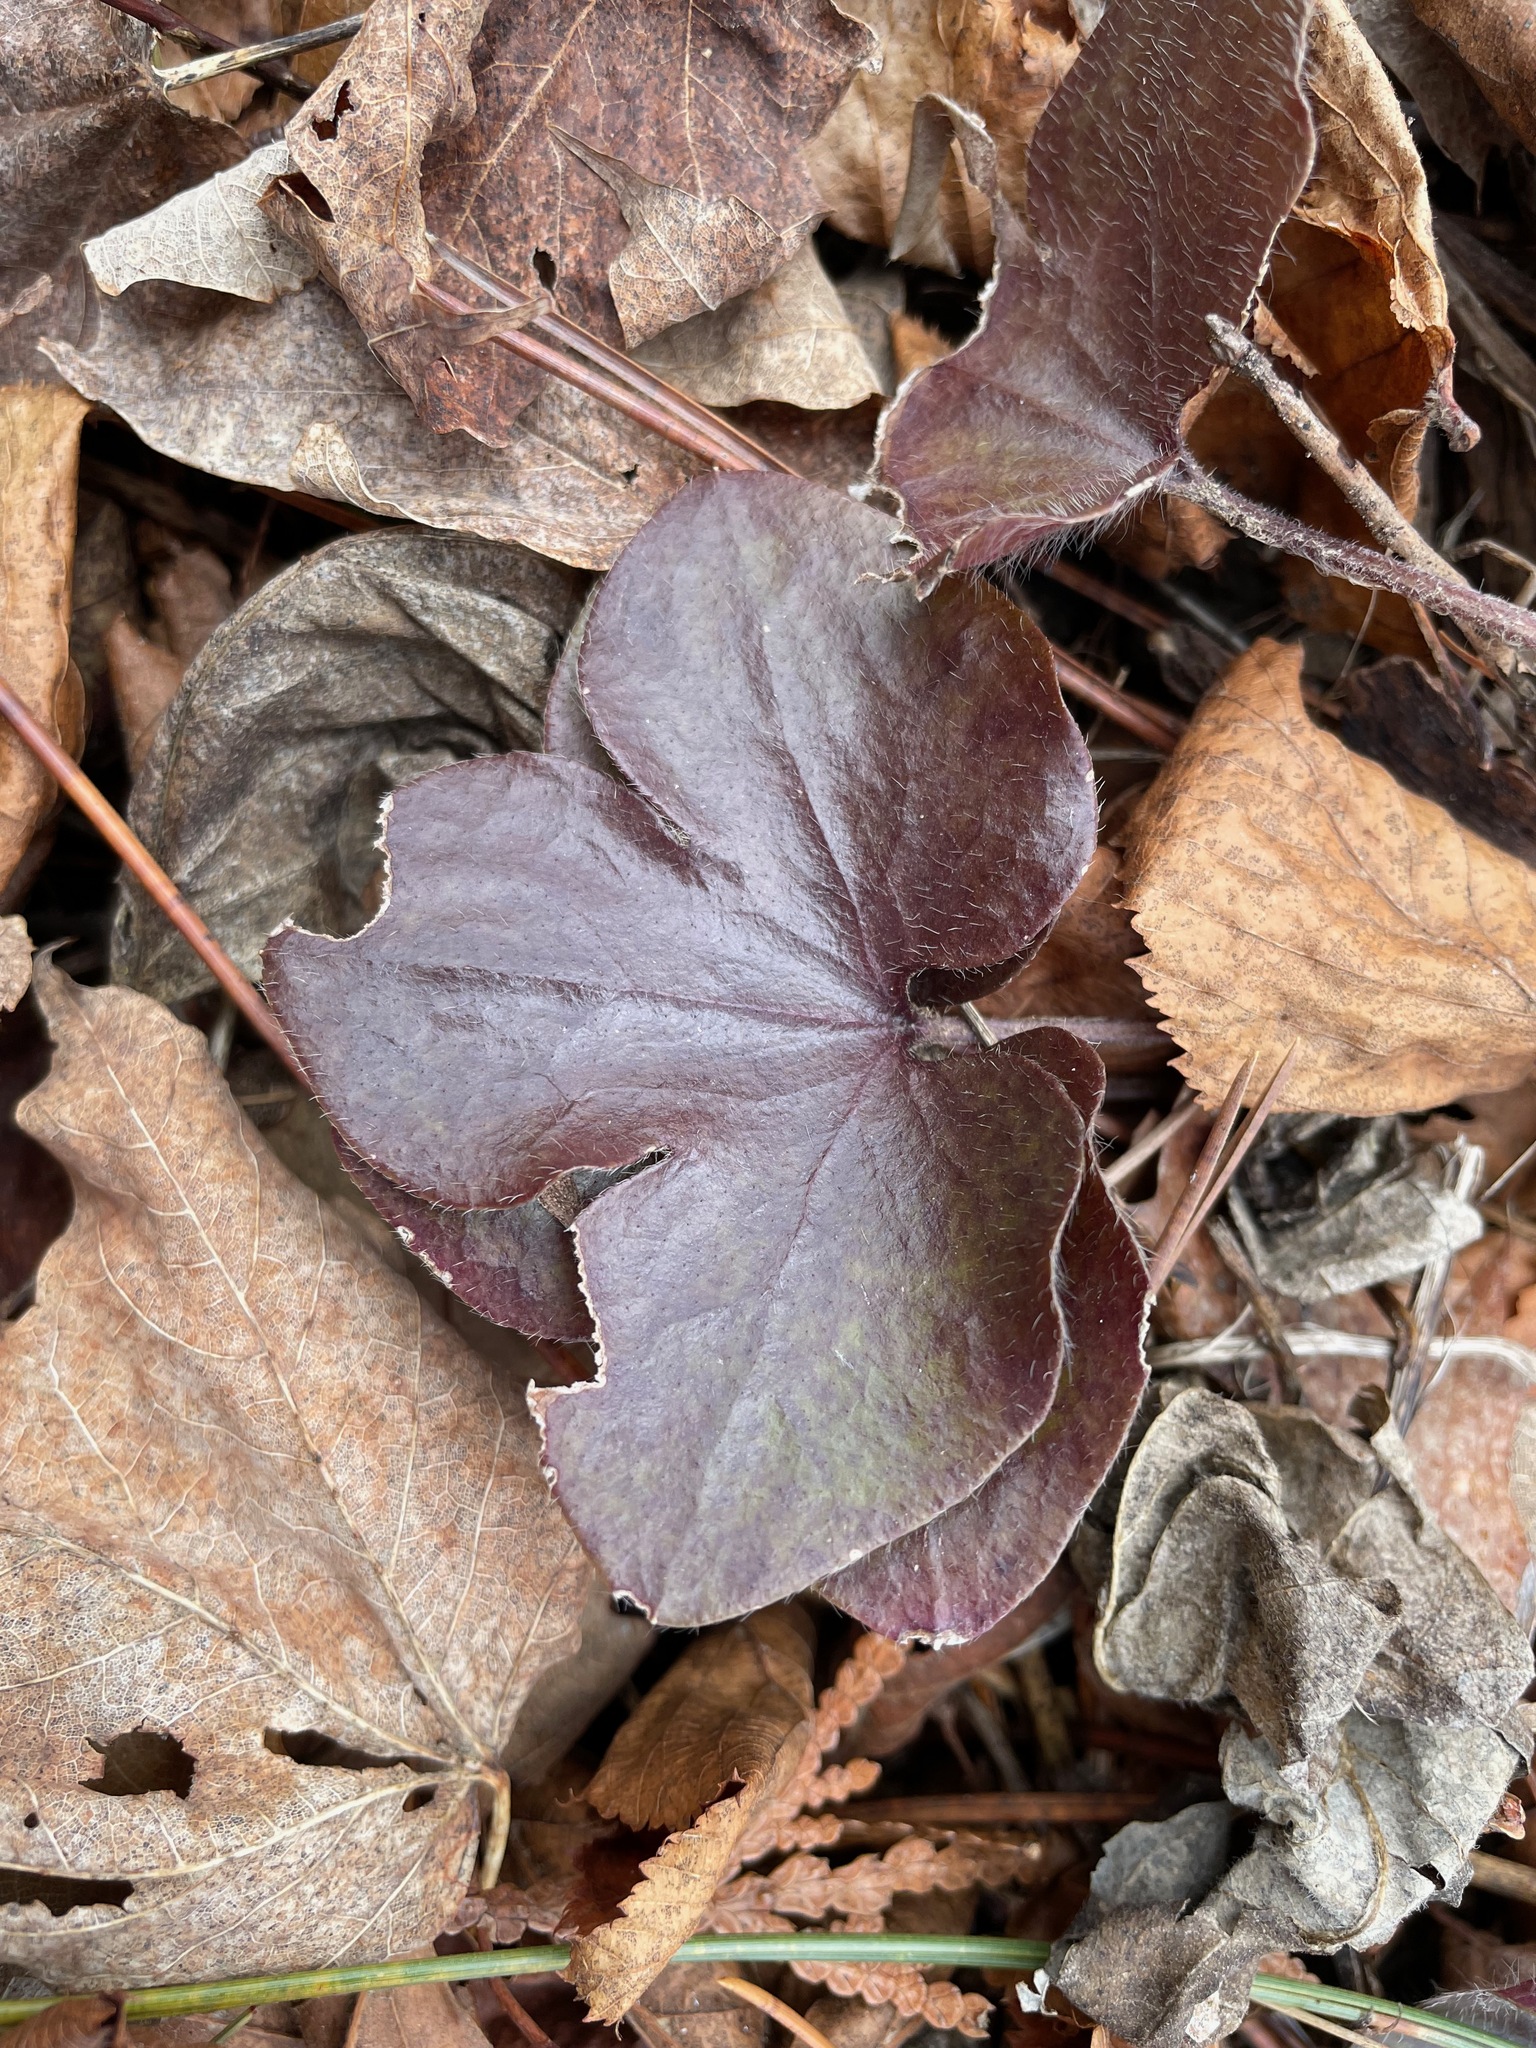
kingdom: Plantae
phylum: Tracheophyta
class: Magnoliopsida
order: Ranunculales
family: Ranunculaceae
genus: Hepatica
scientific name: Hepatica americana
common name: American hepatica
